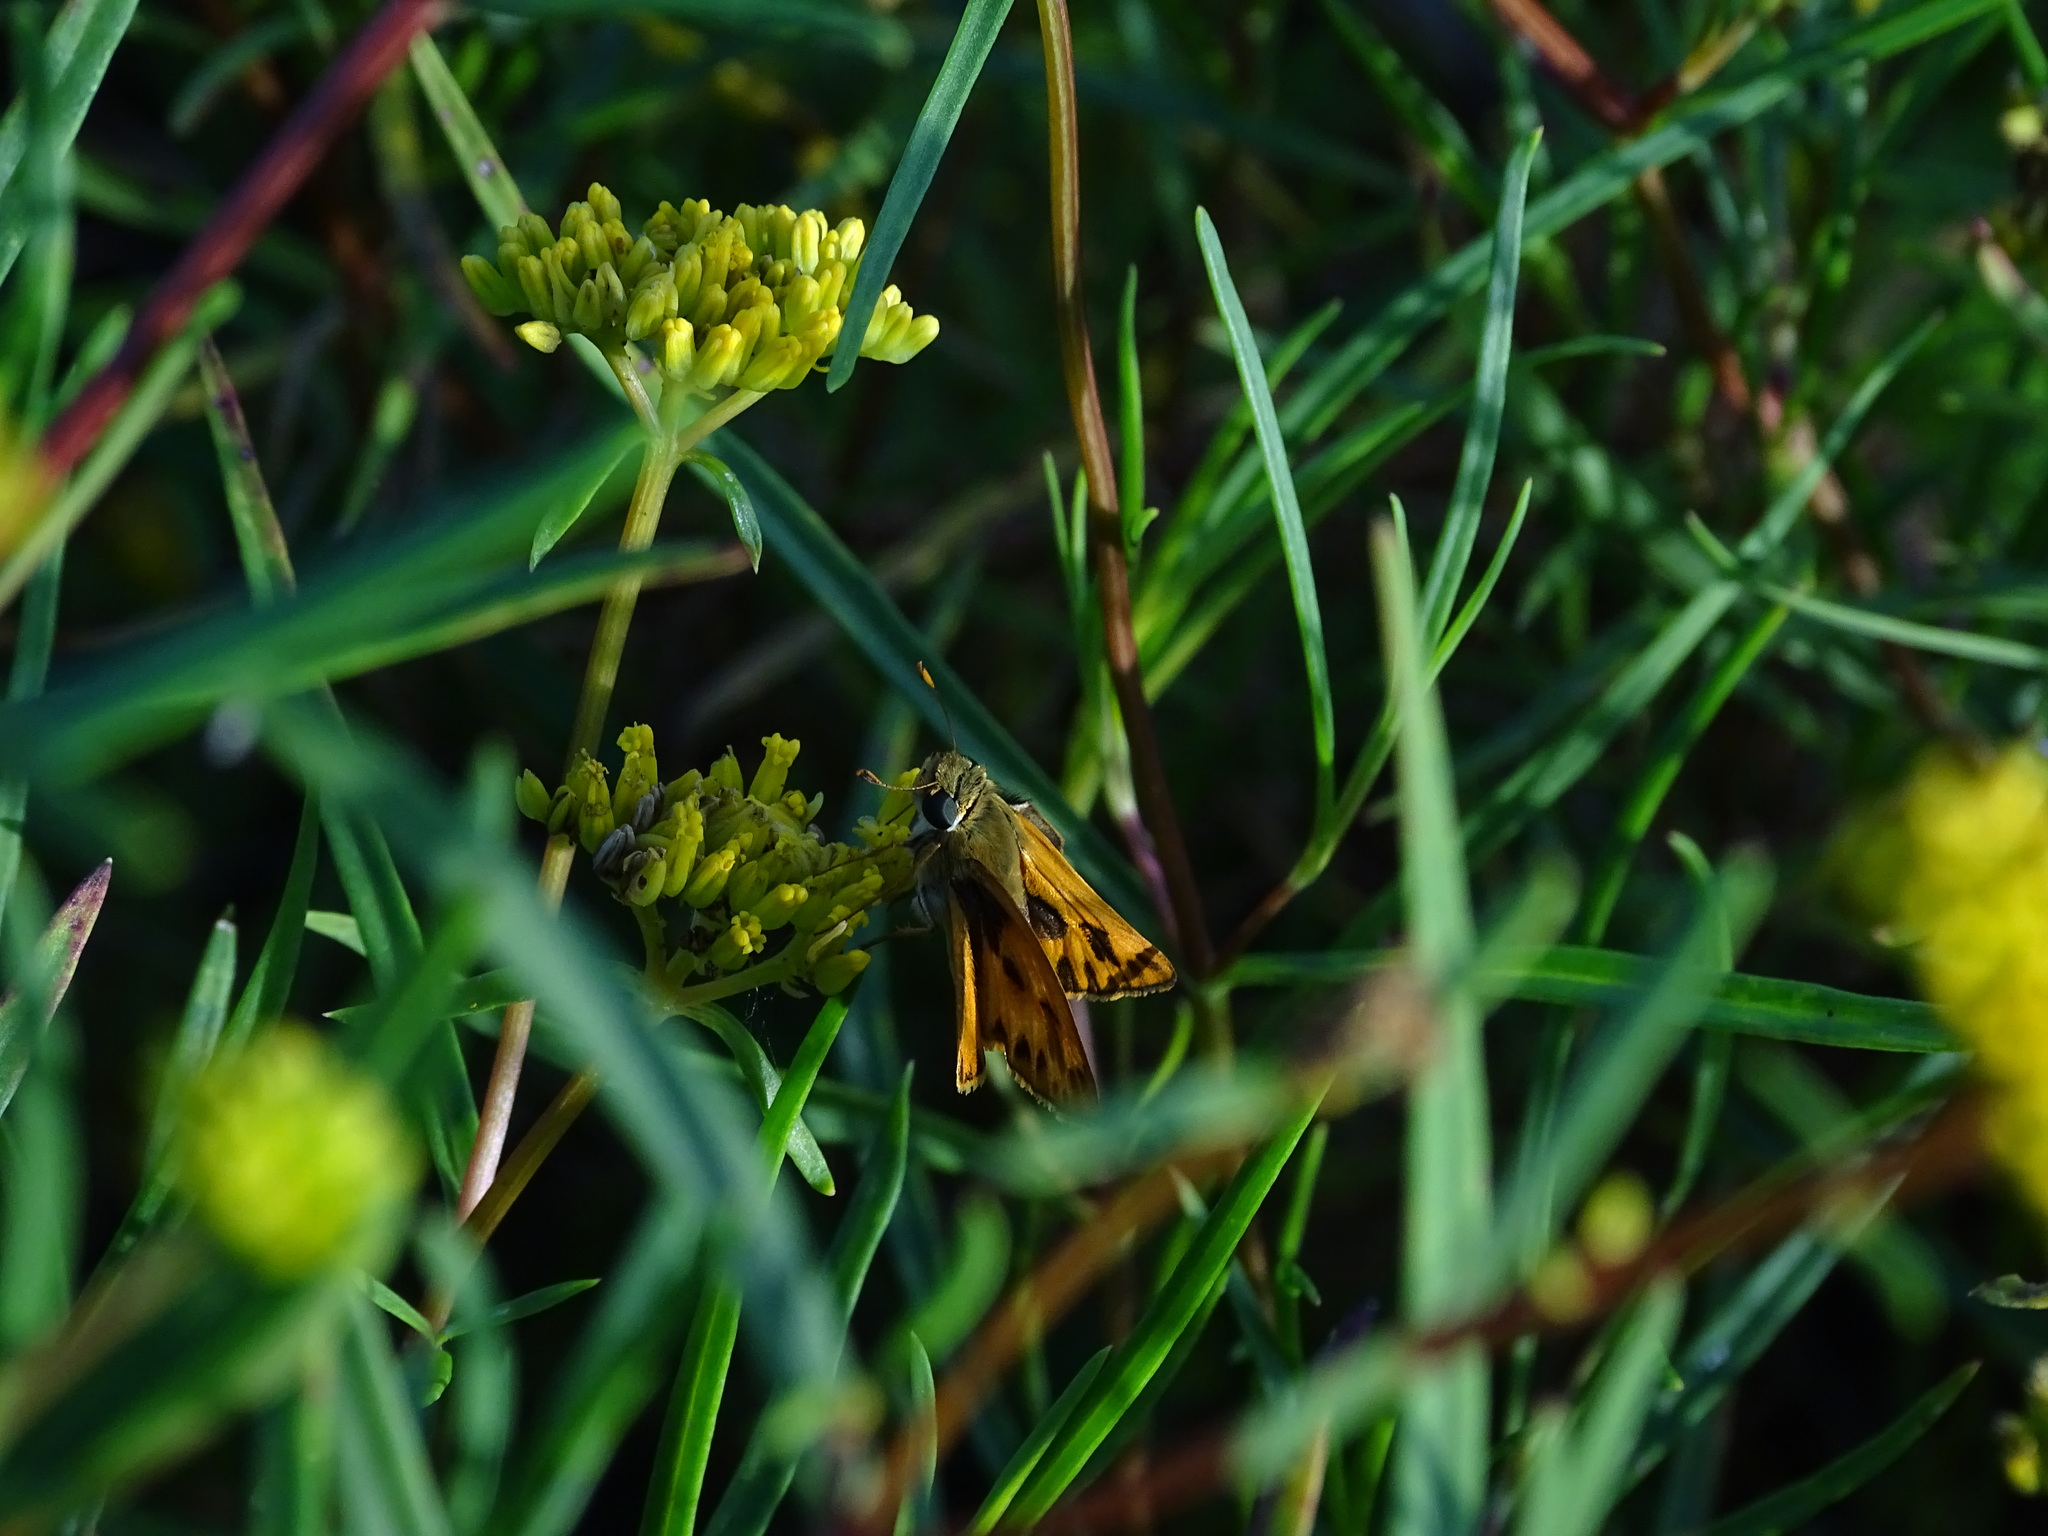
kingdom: Animalia
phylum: Arthropoda
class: Insecta
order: Lepidoptera
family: Hesperiidae
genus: Hylephila
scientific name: Hylephila phyleus
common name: Fiery skipper
